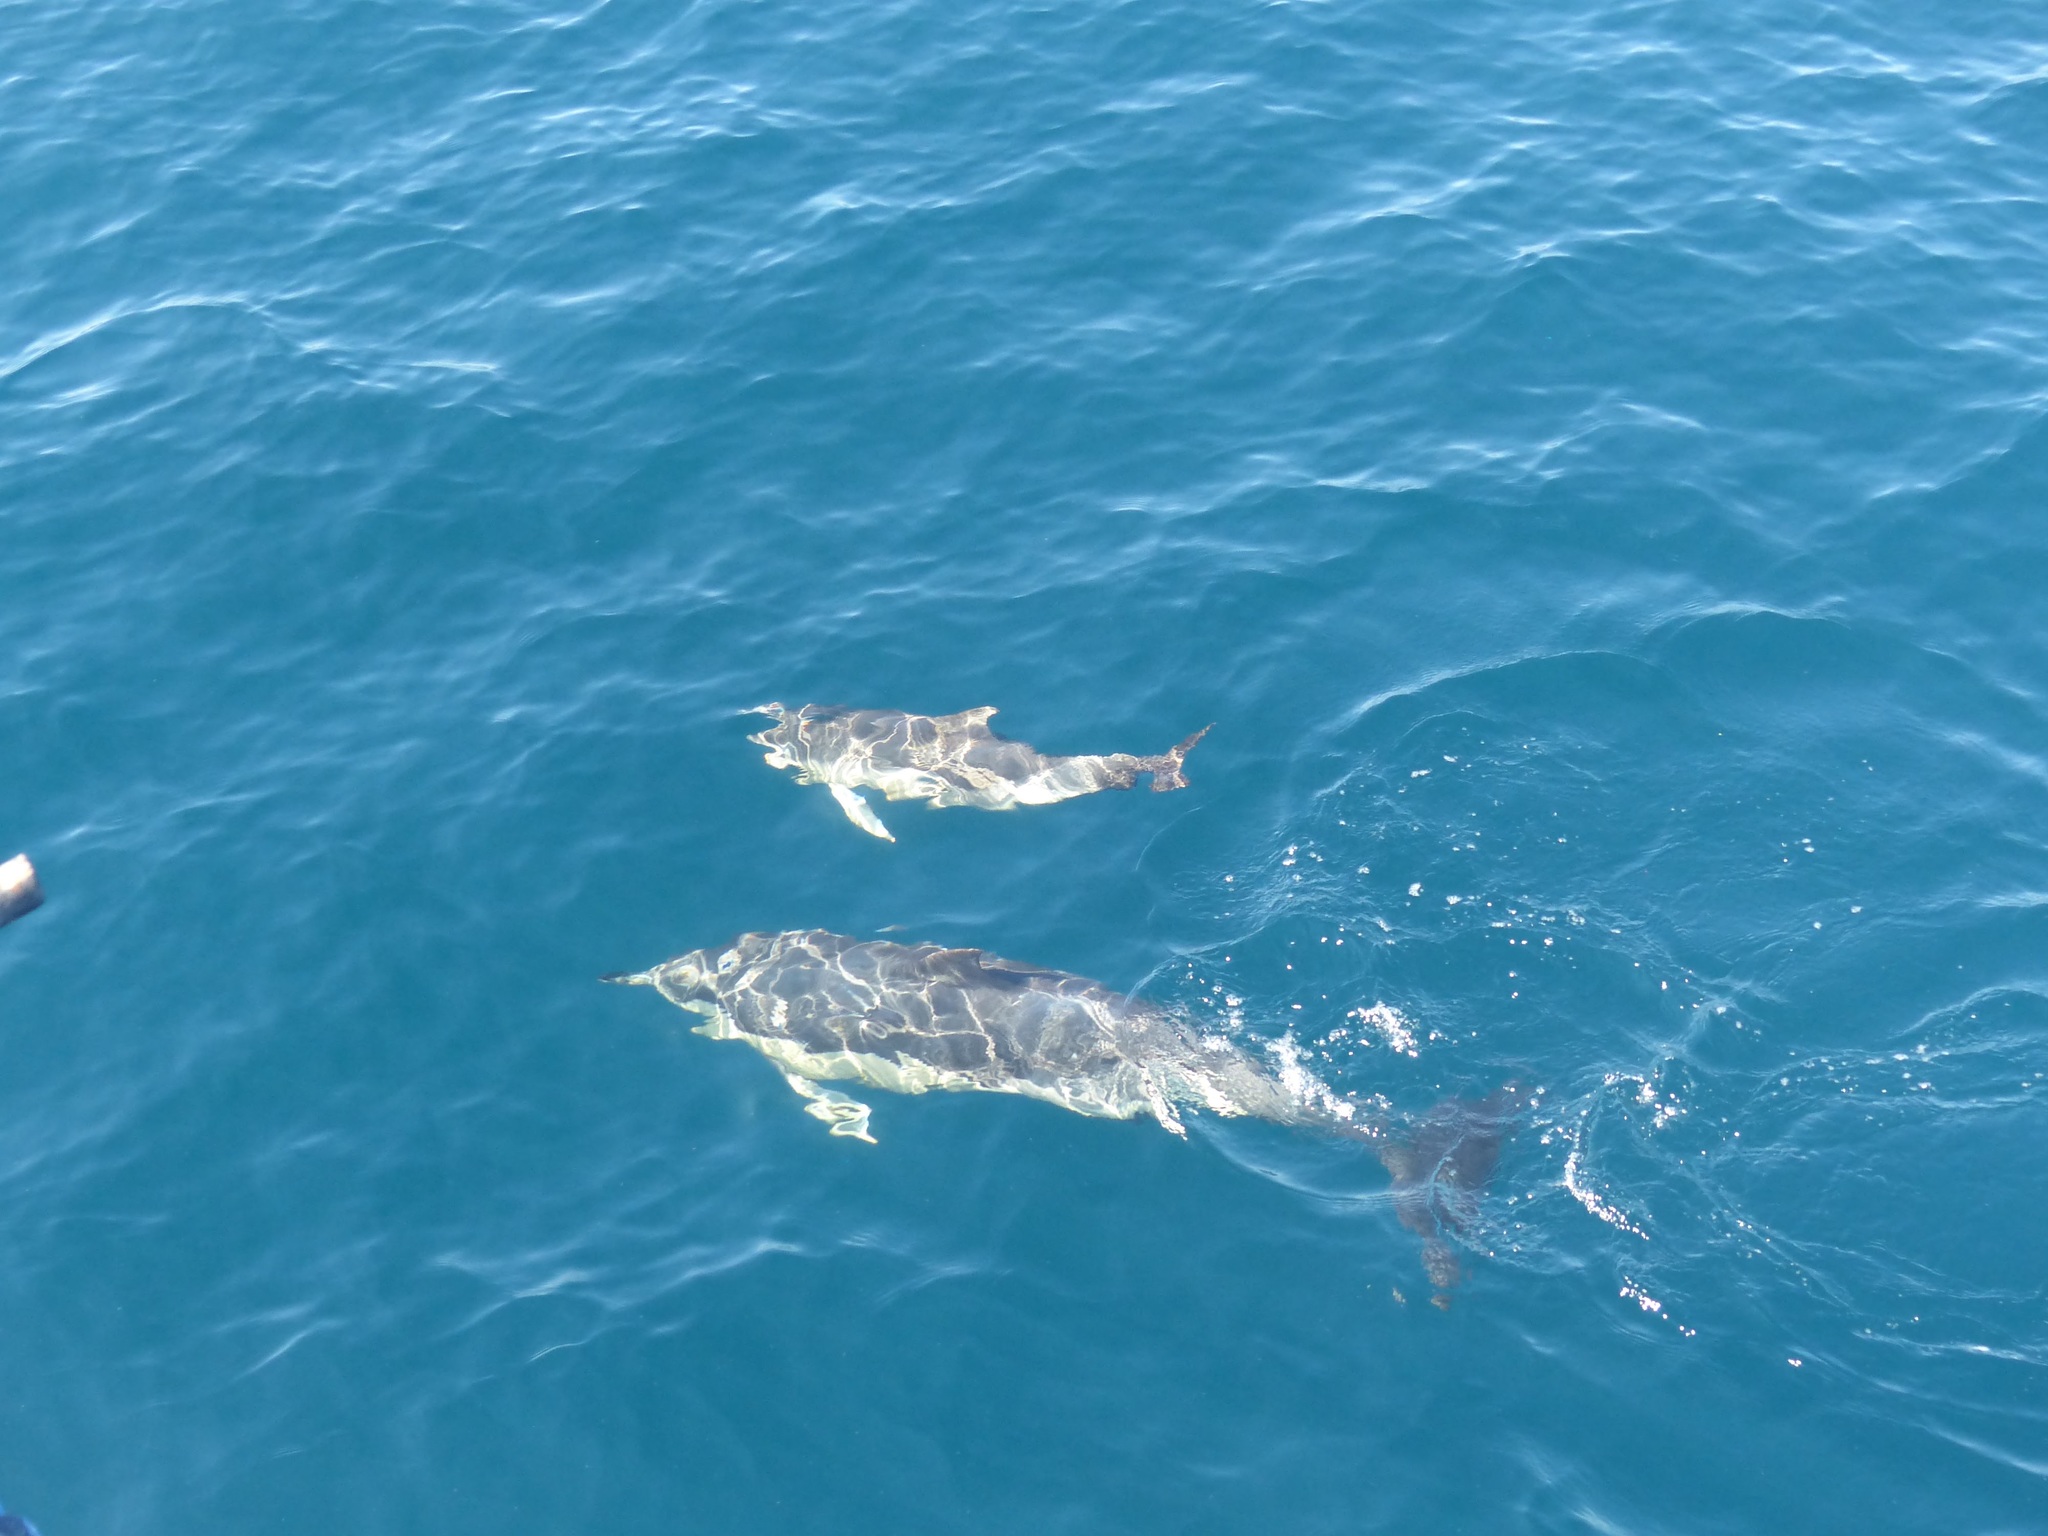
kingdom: Animalia
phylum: Chordata
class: Mammalia
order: Cetacea
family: Delphinidae
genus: Delphinus
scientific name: Delphinus delphis
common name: Common dolphin
